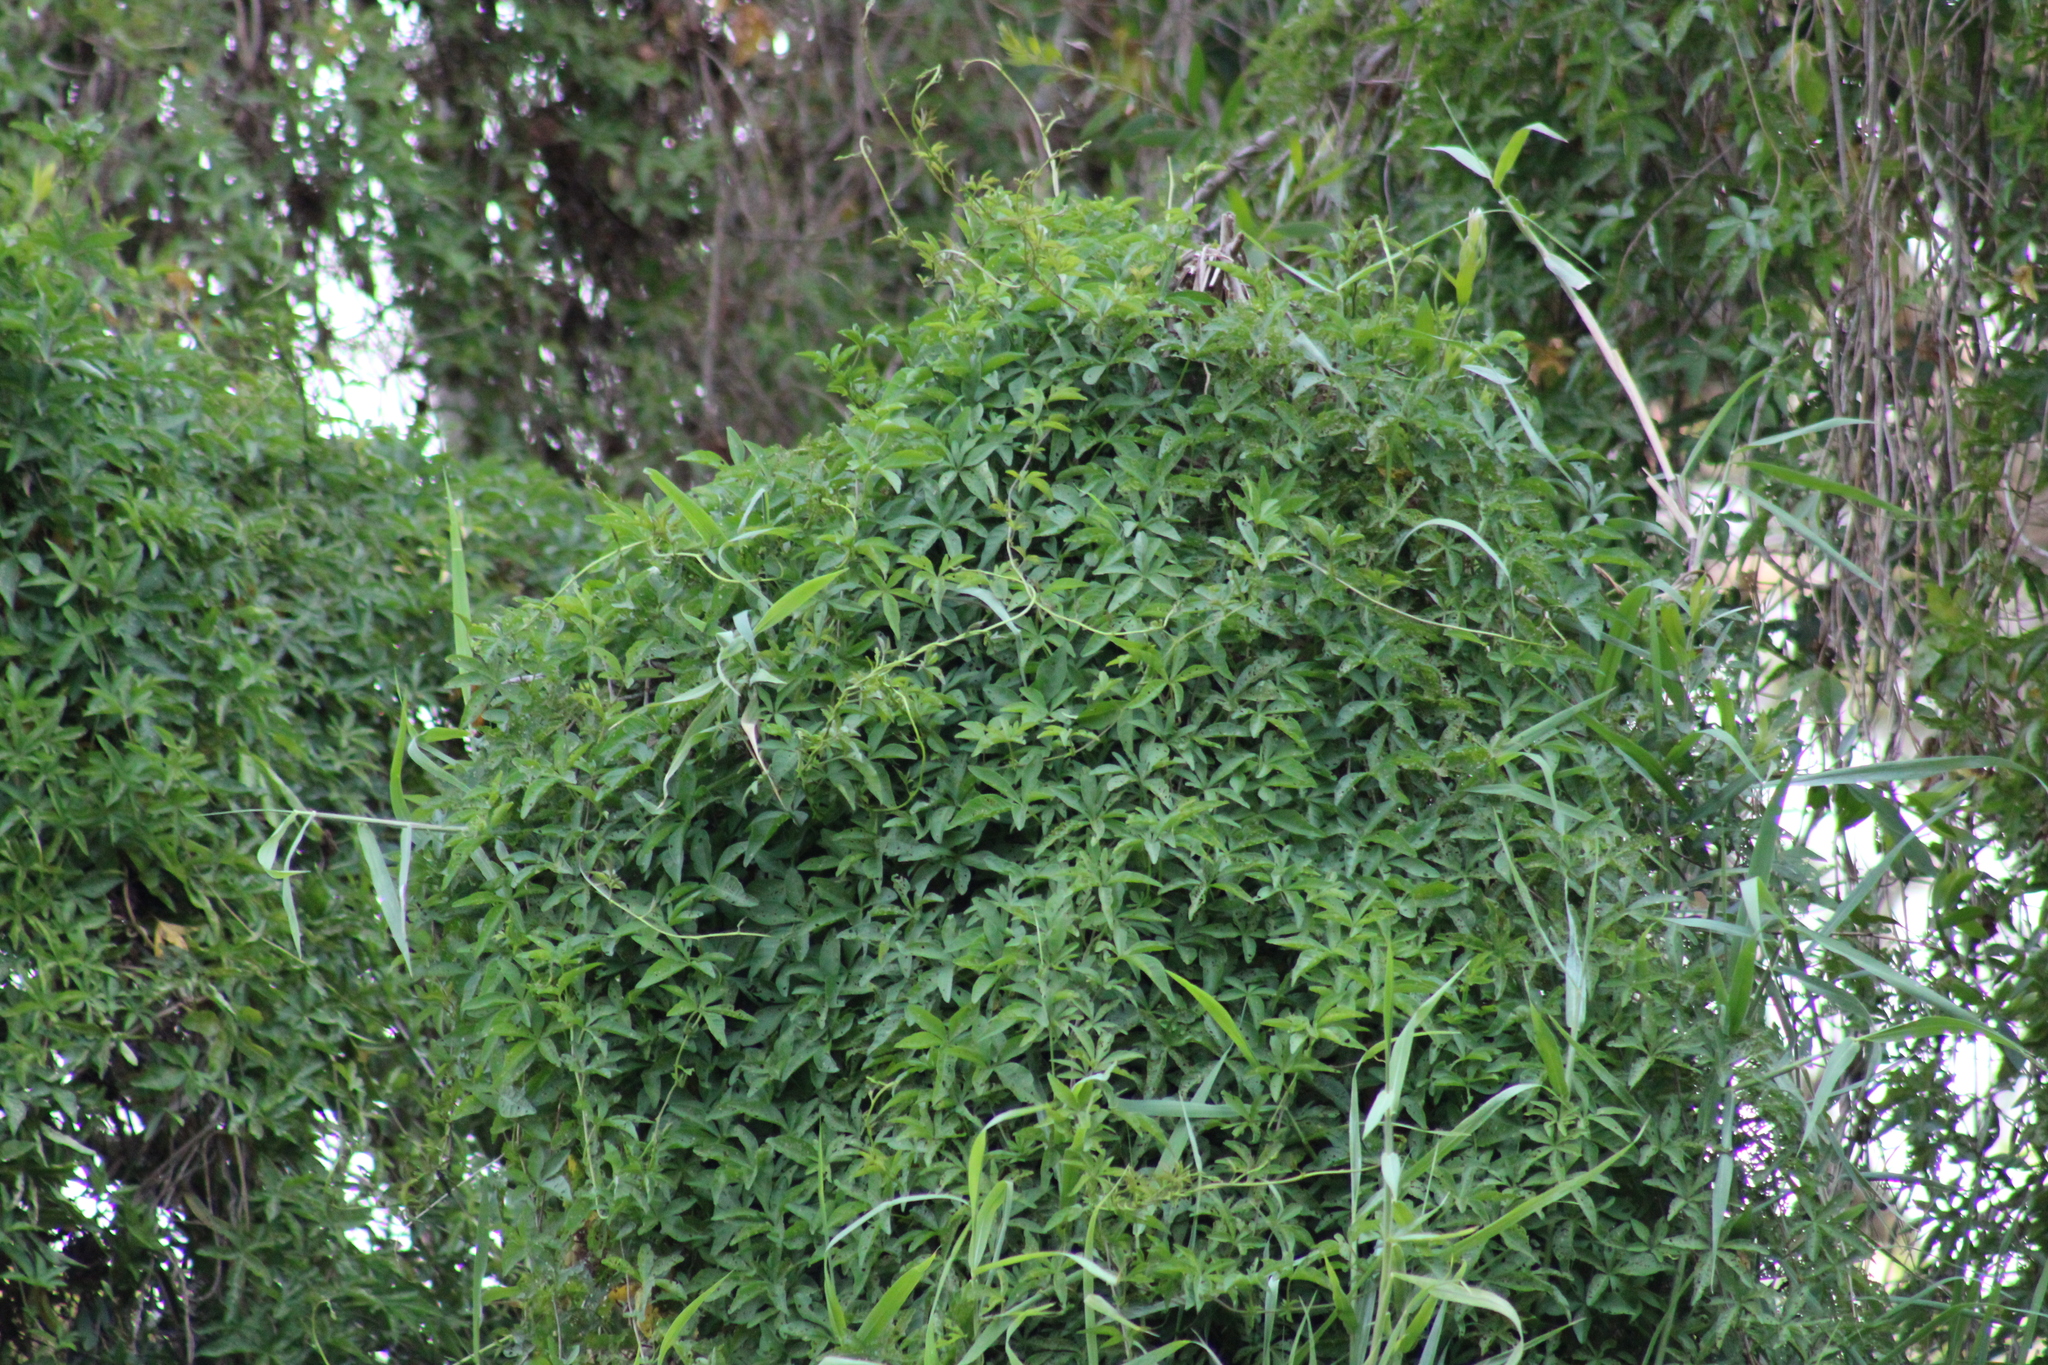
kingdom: Plantae
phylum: Tracheophyta
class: Magnoliopsida
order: Solanales
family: Convolvulaceae
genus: Ipomoea
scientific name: Ipomoea cairica
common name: Mile a minute vine
